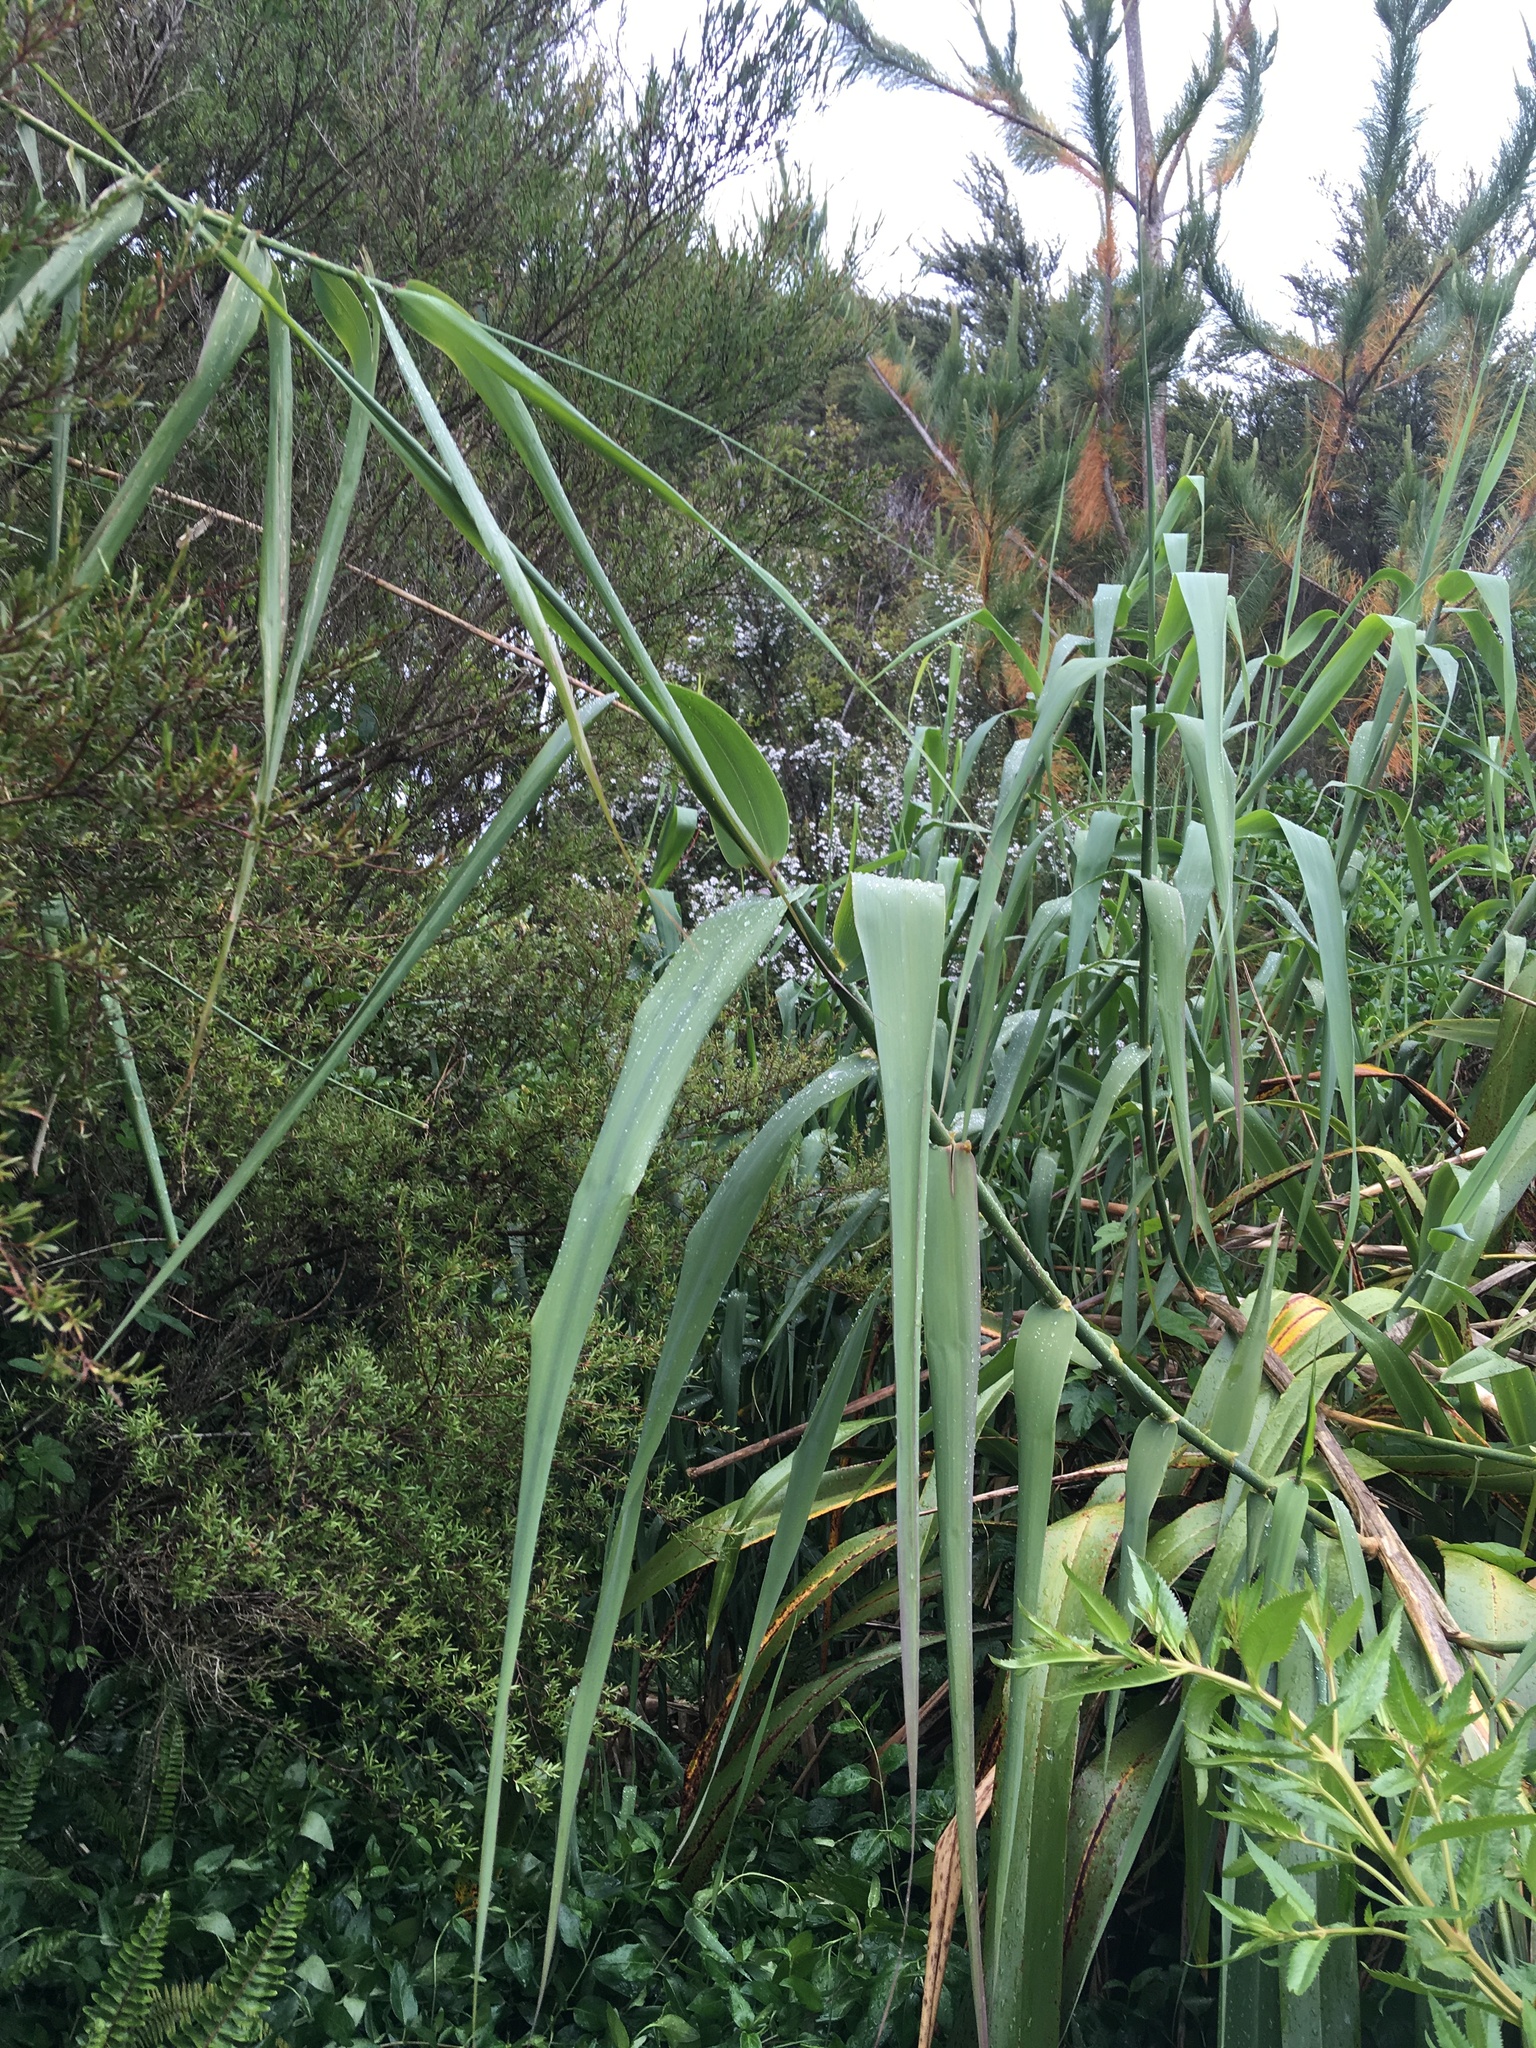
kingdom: Plantae
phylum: Tracheophyta
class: Liliopsida
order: Poales
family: Poaceae
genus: Arundo
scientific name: Arundo donax
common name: Giant reed
